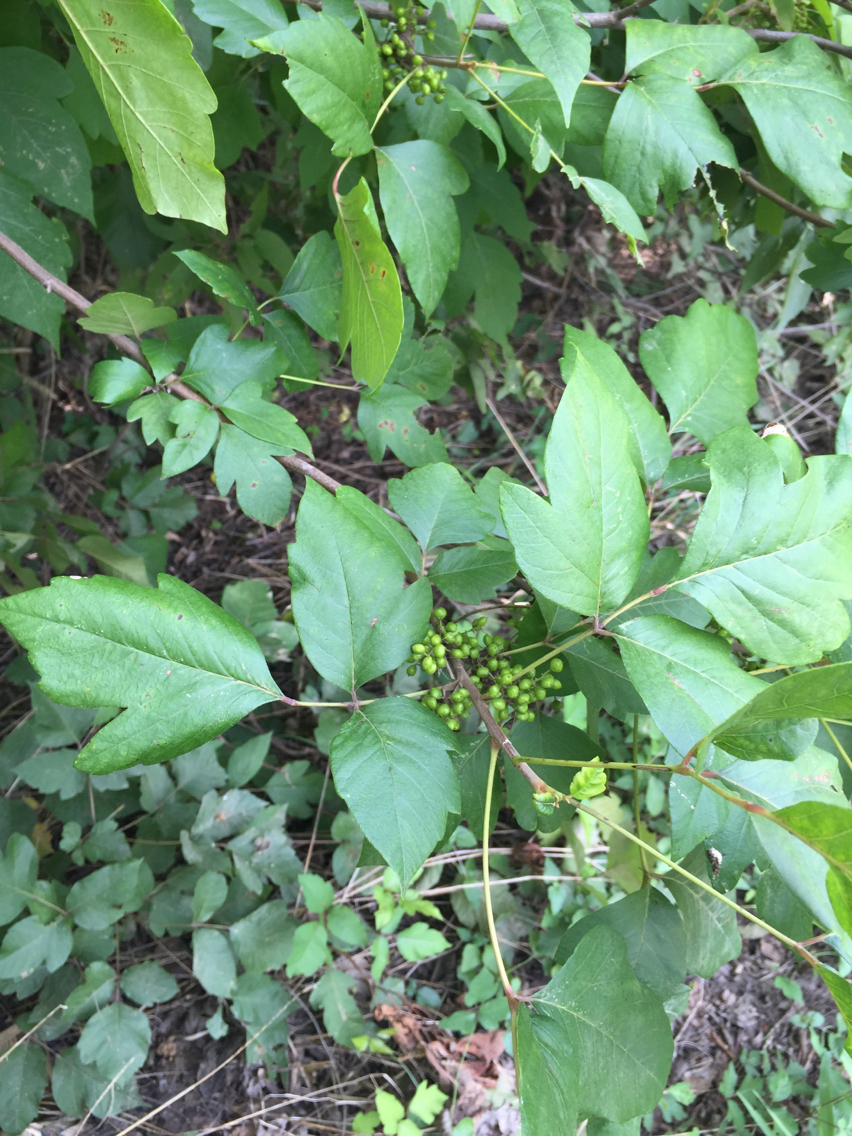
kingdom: Plantae
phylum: Tracheophyta
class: Magnoliopsida
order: Sapindales
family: Anacardiaceae
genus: Toxicodendron
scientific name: Toxicodendron radicans
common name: Poison ivy
